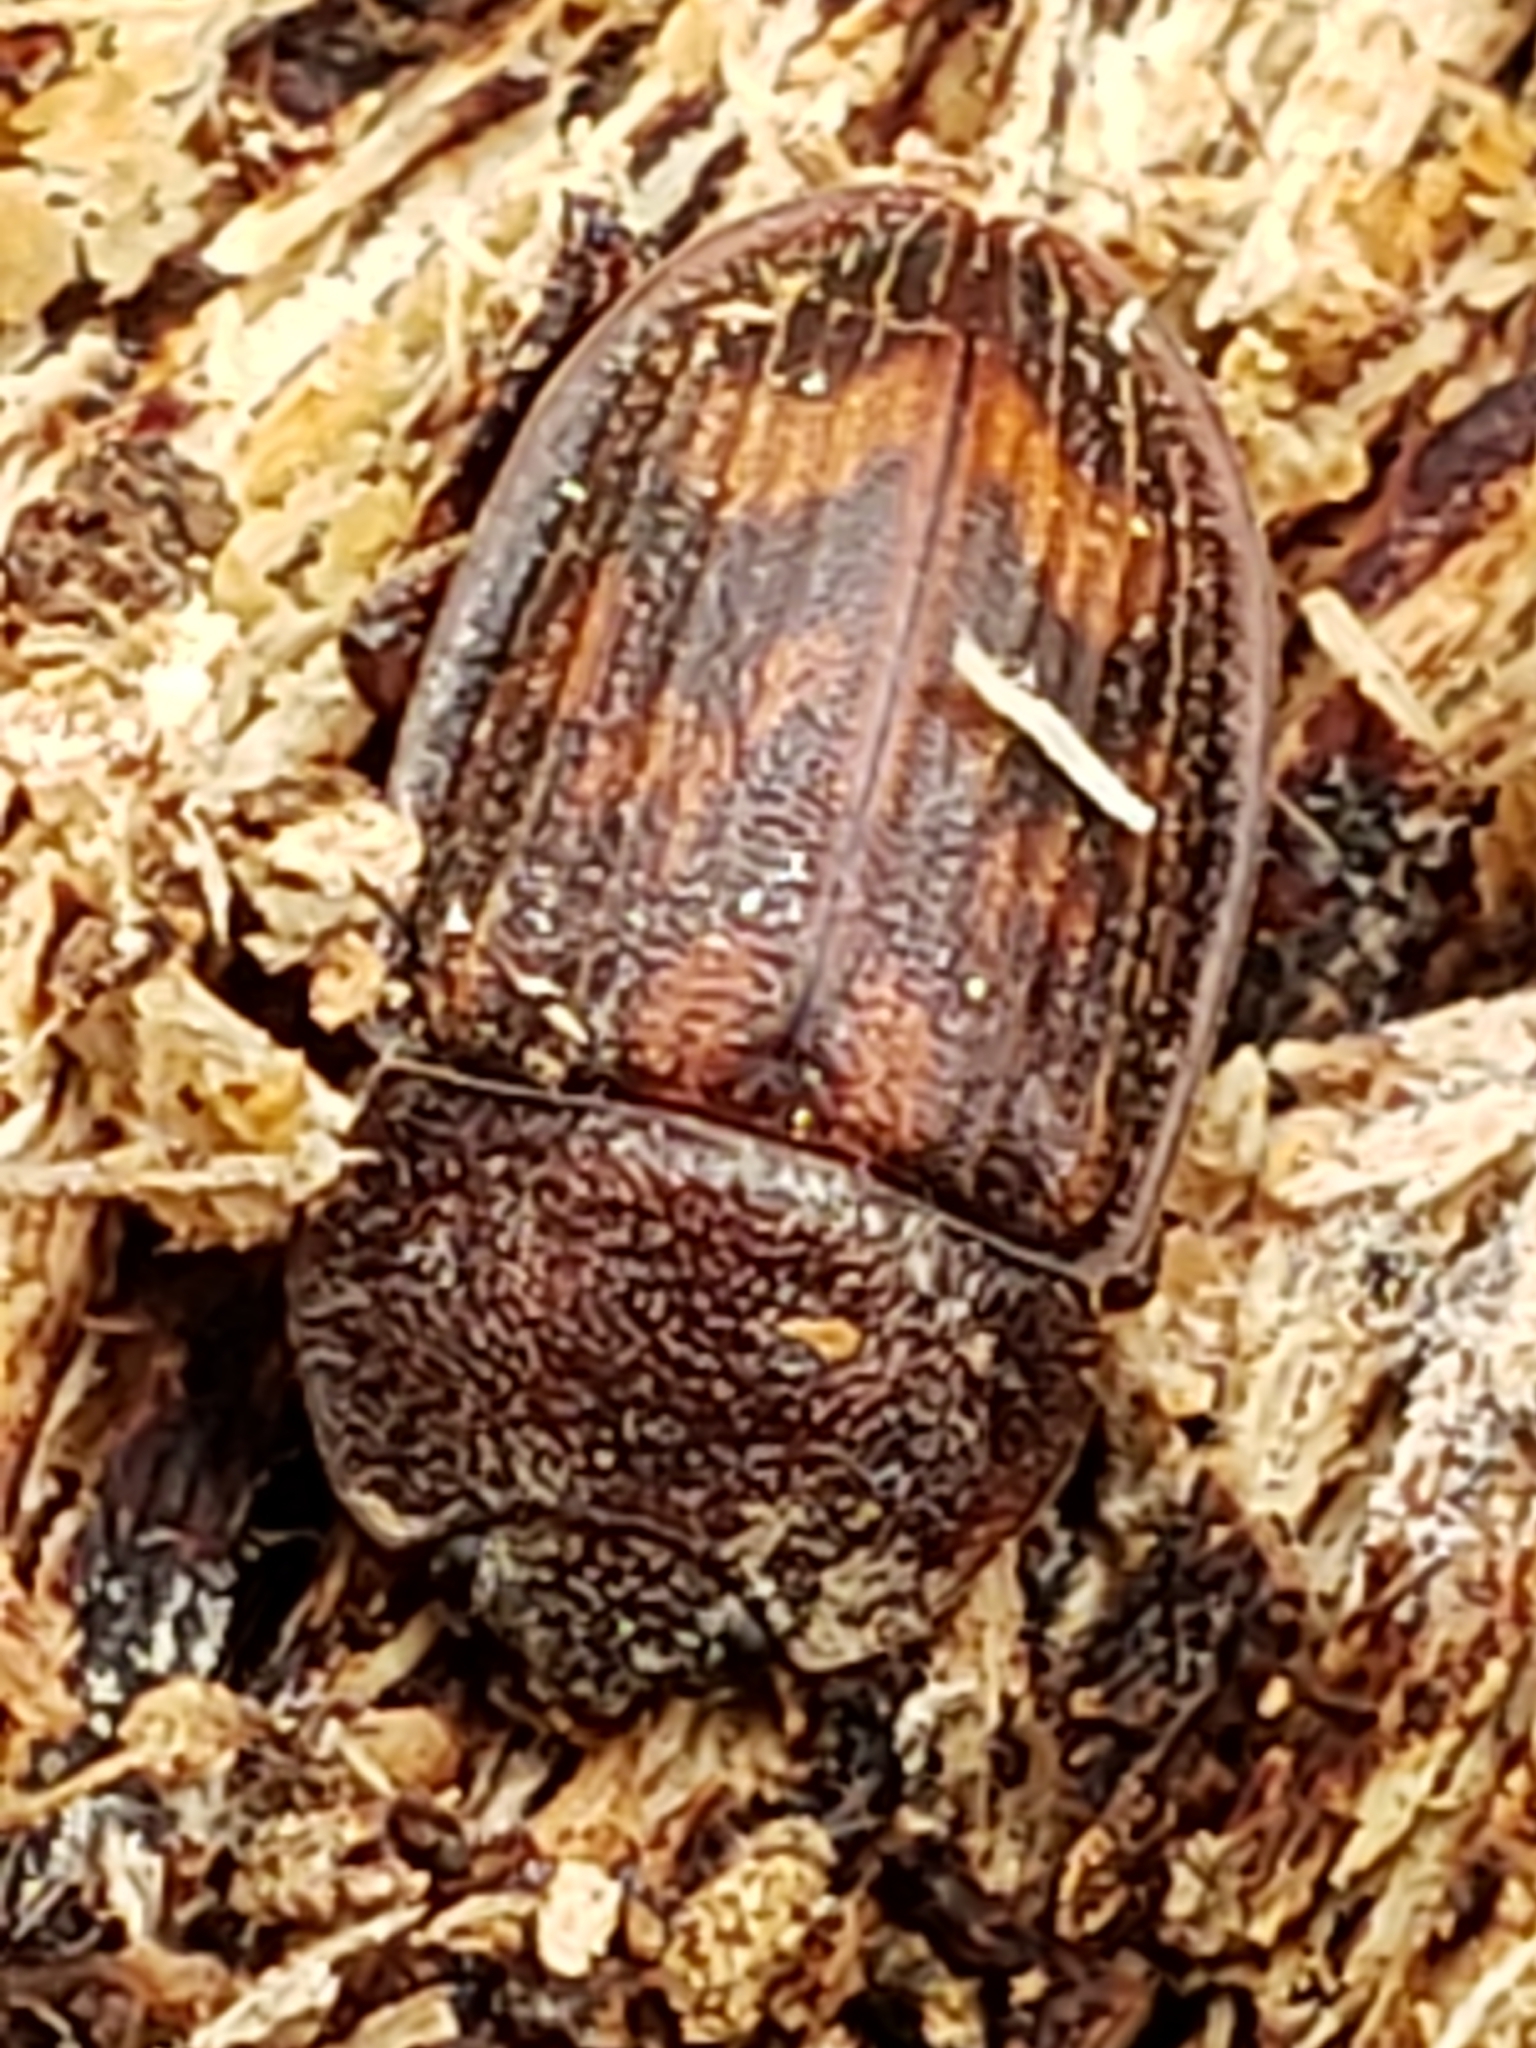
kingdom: Animalia
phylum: Arthropoda
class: Insecta
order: Coleoptera
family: Nitidulidae
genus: Phenolia
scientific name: Phenolia grossa
